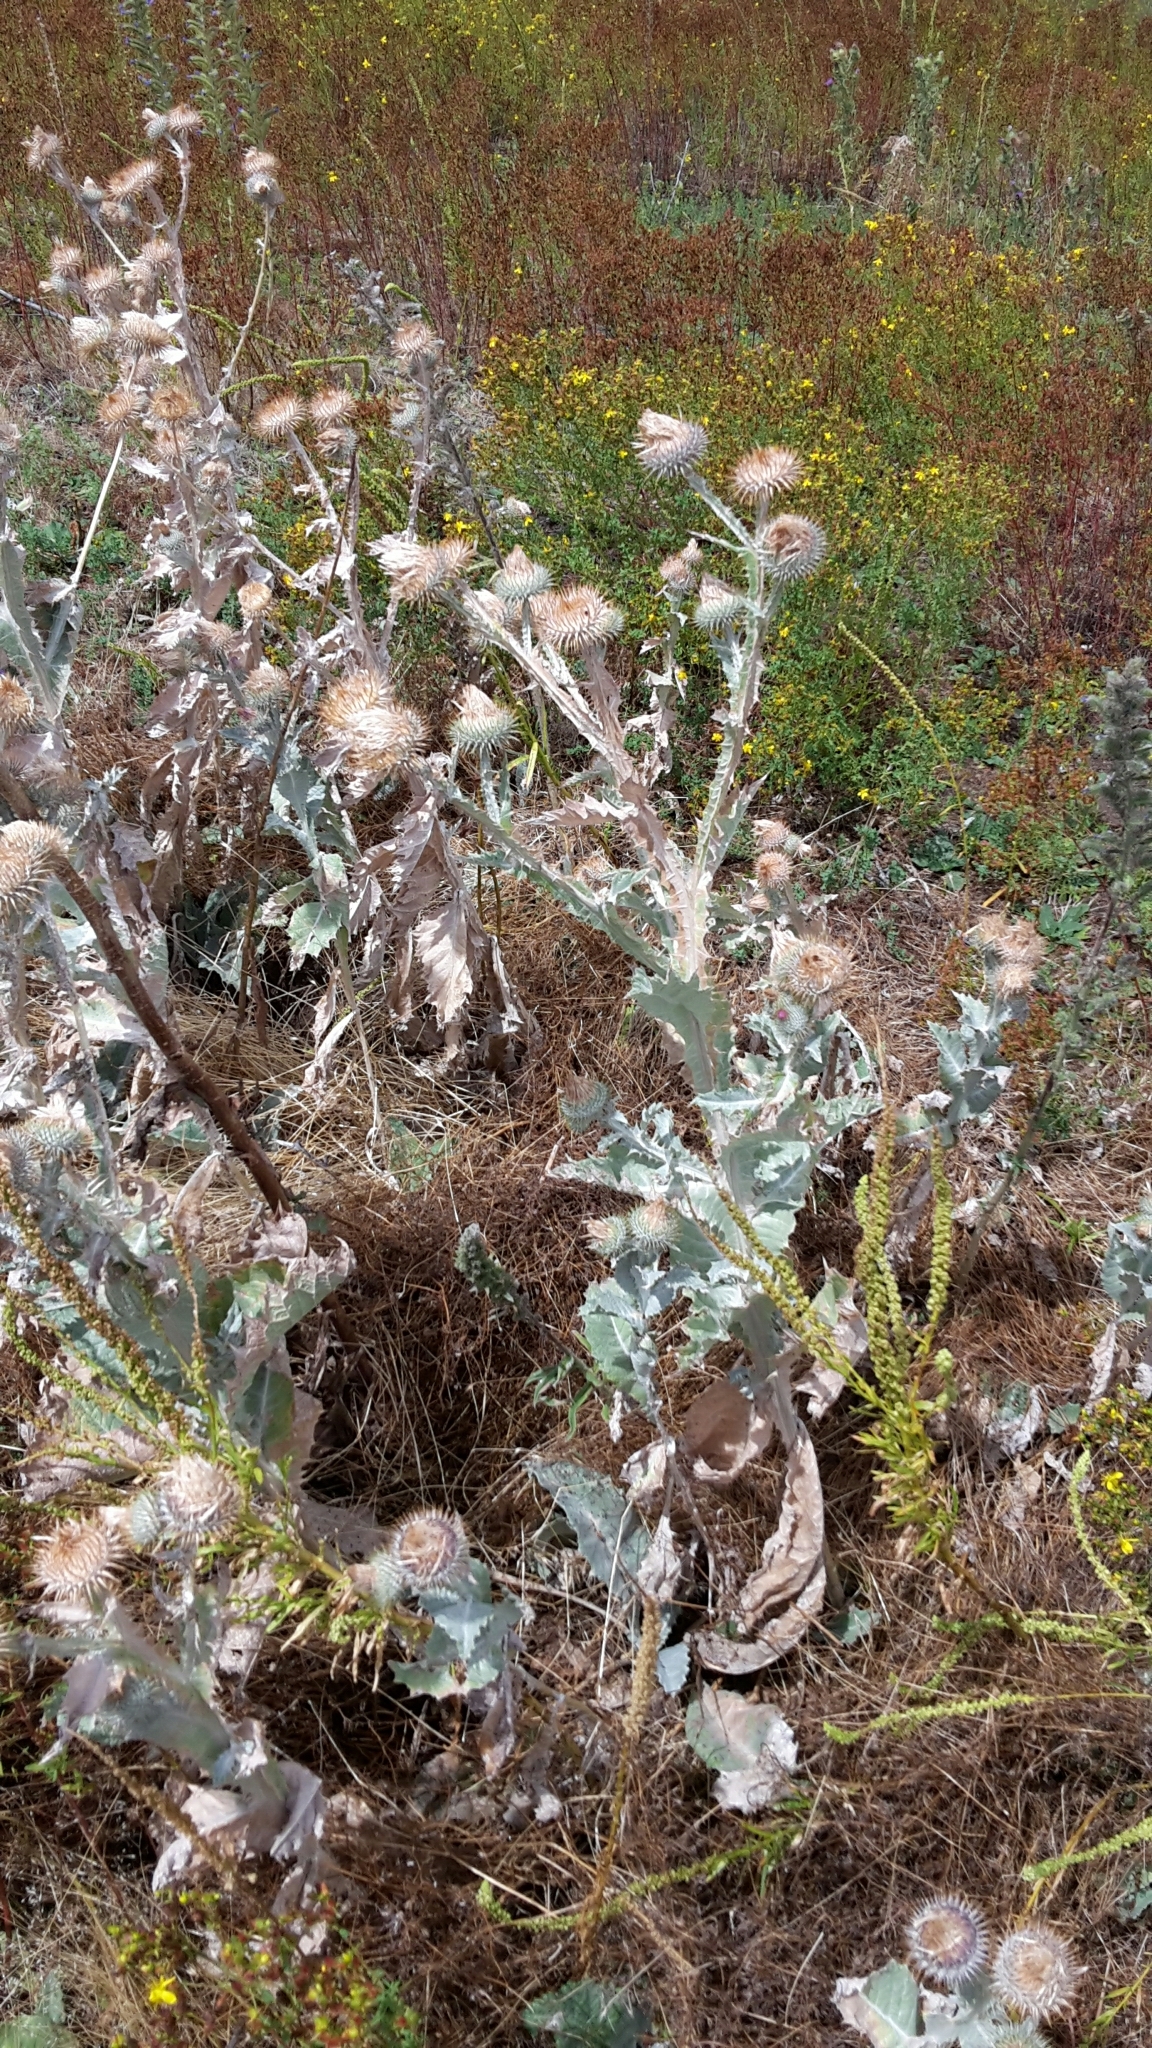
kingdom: Plantae
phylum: Tracheophyta
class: Magnoliopsida
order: Asterales
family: Asteraceae
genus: Onopordum
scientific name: Onopordum acanthium
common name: Scotch thistle
